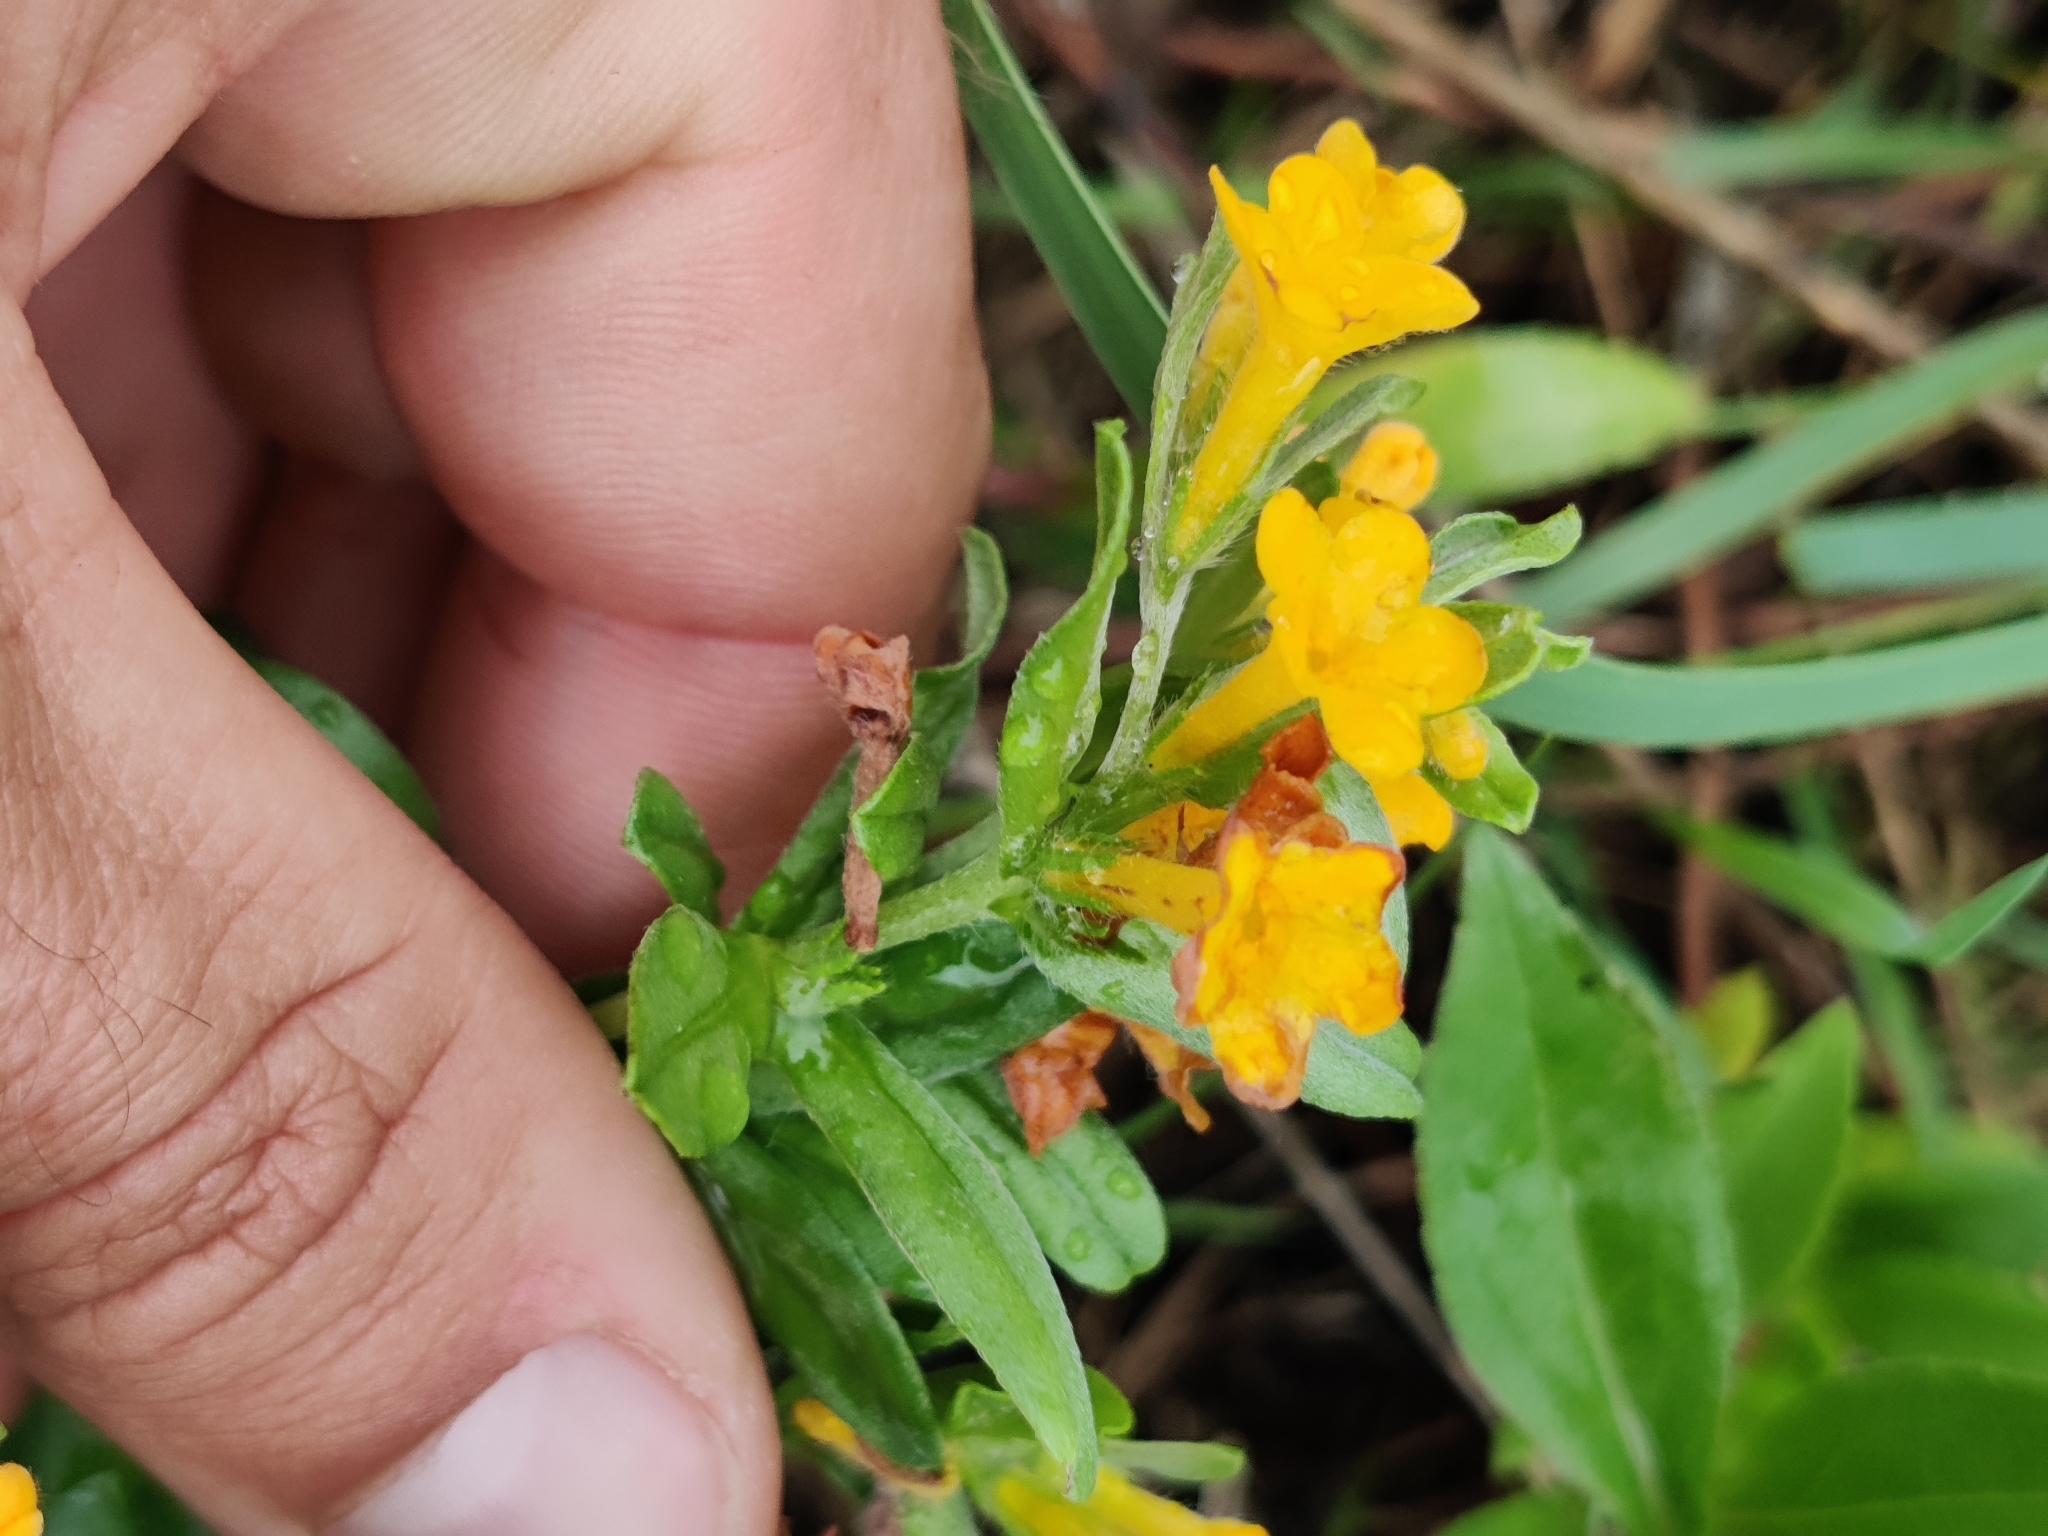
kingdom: Plantae
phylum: Tracheophyta
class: Magnoliopsida
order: Boraginales
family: Boraginaceae
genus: Lithospermum
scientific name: Lithospermum canescens
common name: Hoary puccoon
